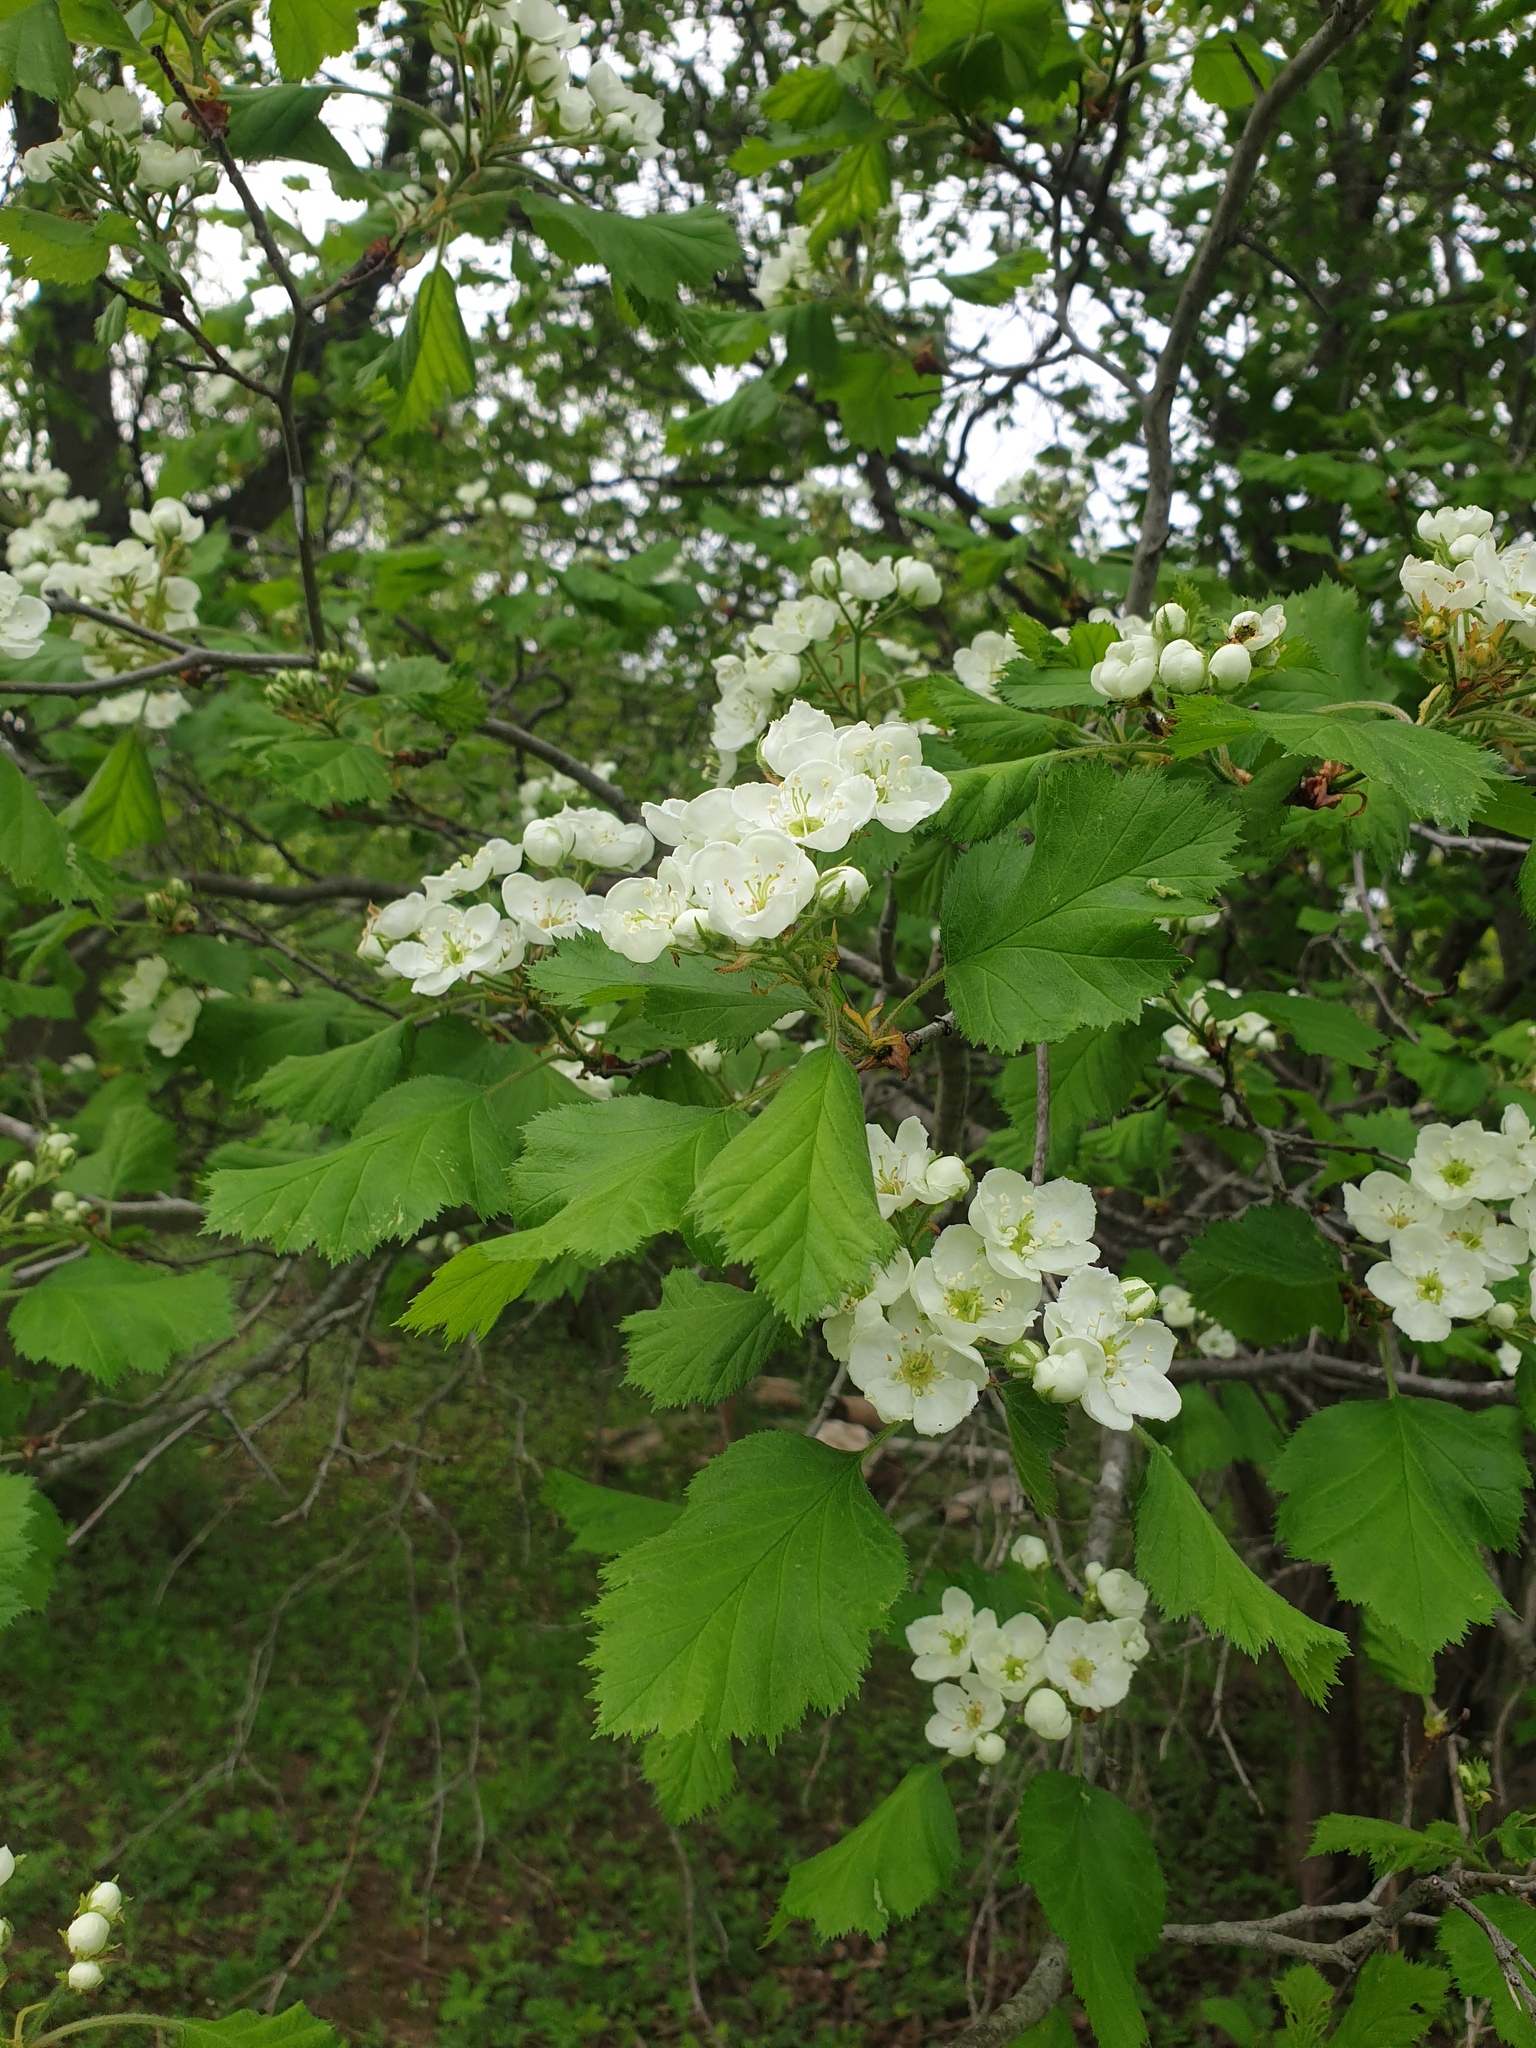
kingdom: Plantae
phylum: Tracheophyta
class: Magnoliopsida
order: Rosales
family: Rosaceae
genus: Crataegus
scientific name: Crataegus submollis
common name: Hairy cockspurthorn
